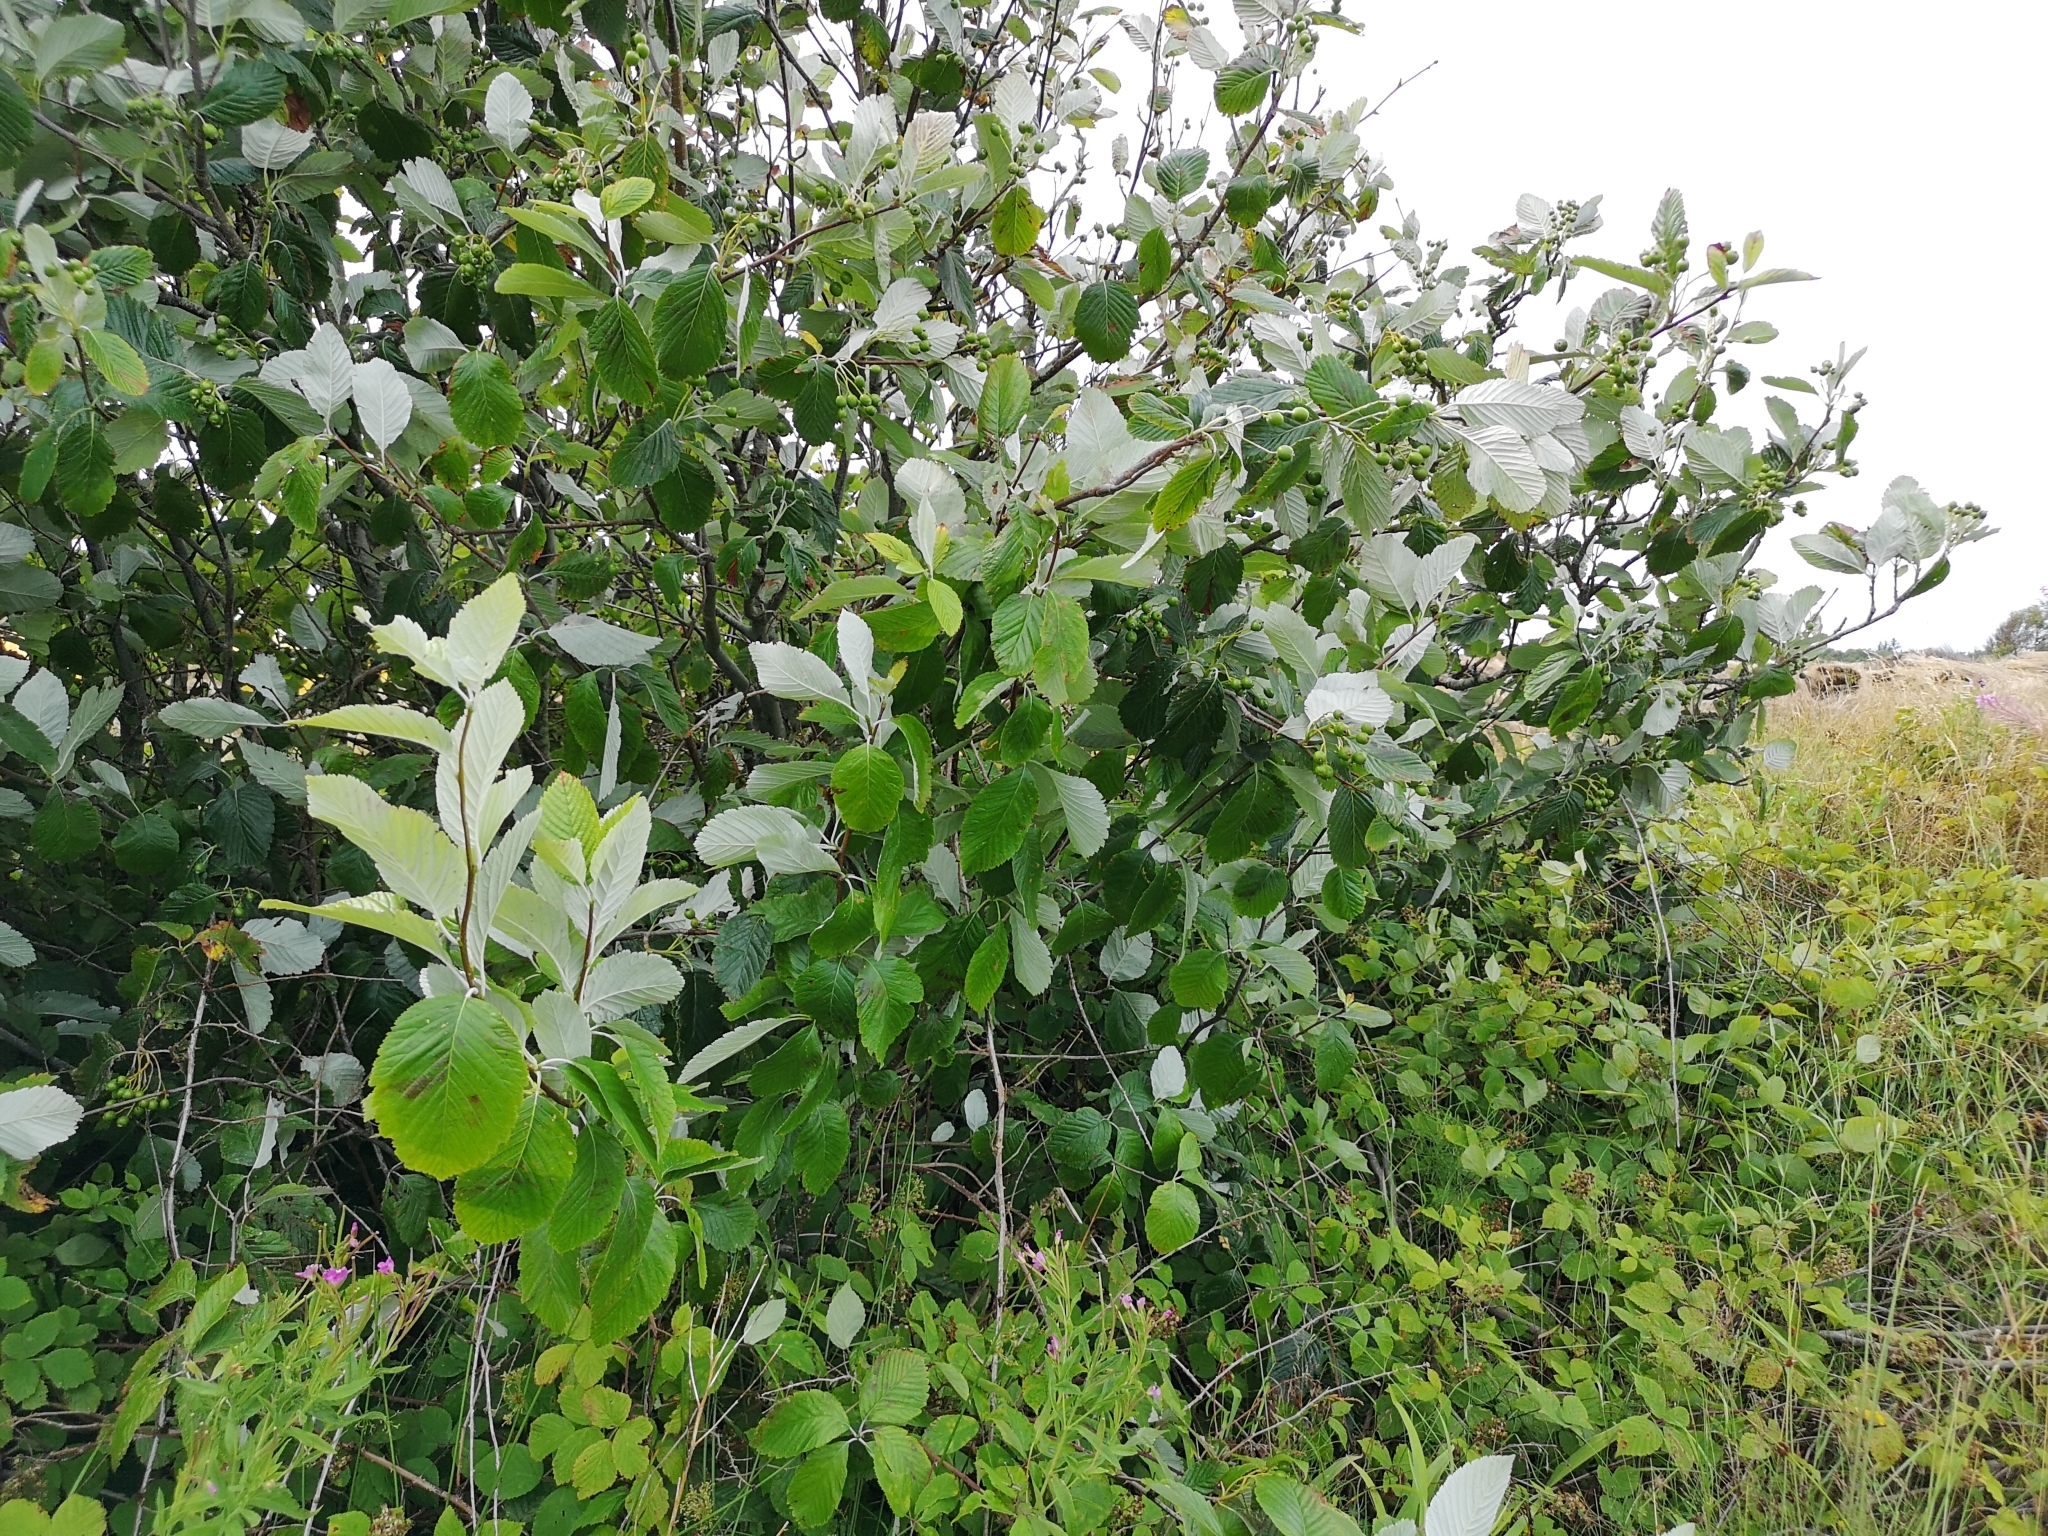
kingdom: Plantae
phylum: Tracheophyta
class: Magnoliopsida
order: Rosales
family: Rosaceae
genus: Aria
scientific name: Aria edulis
